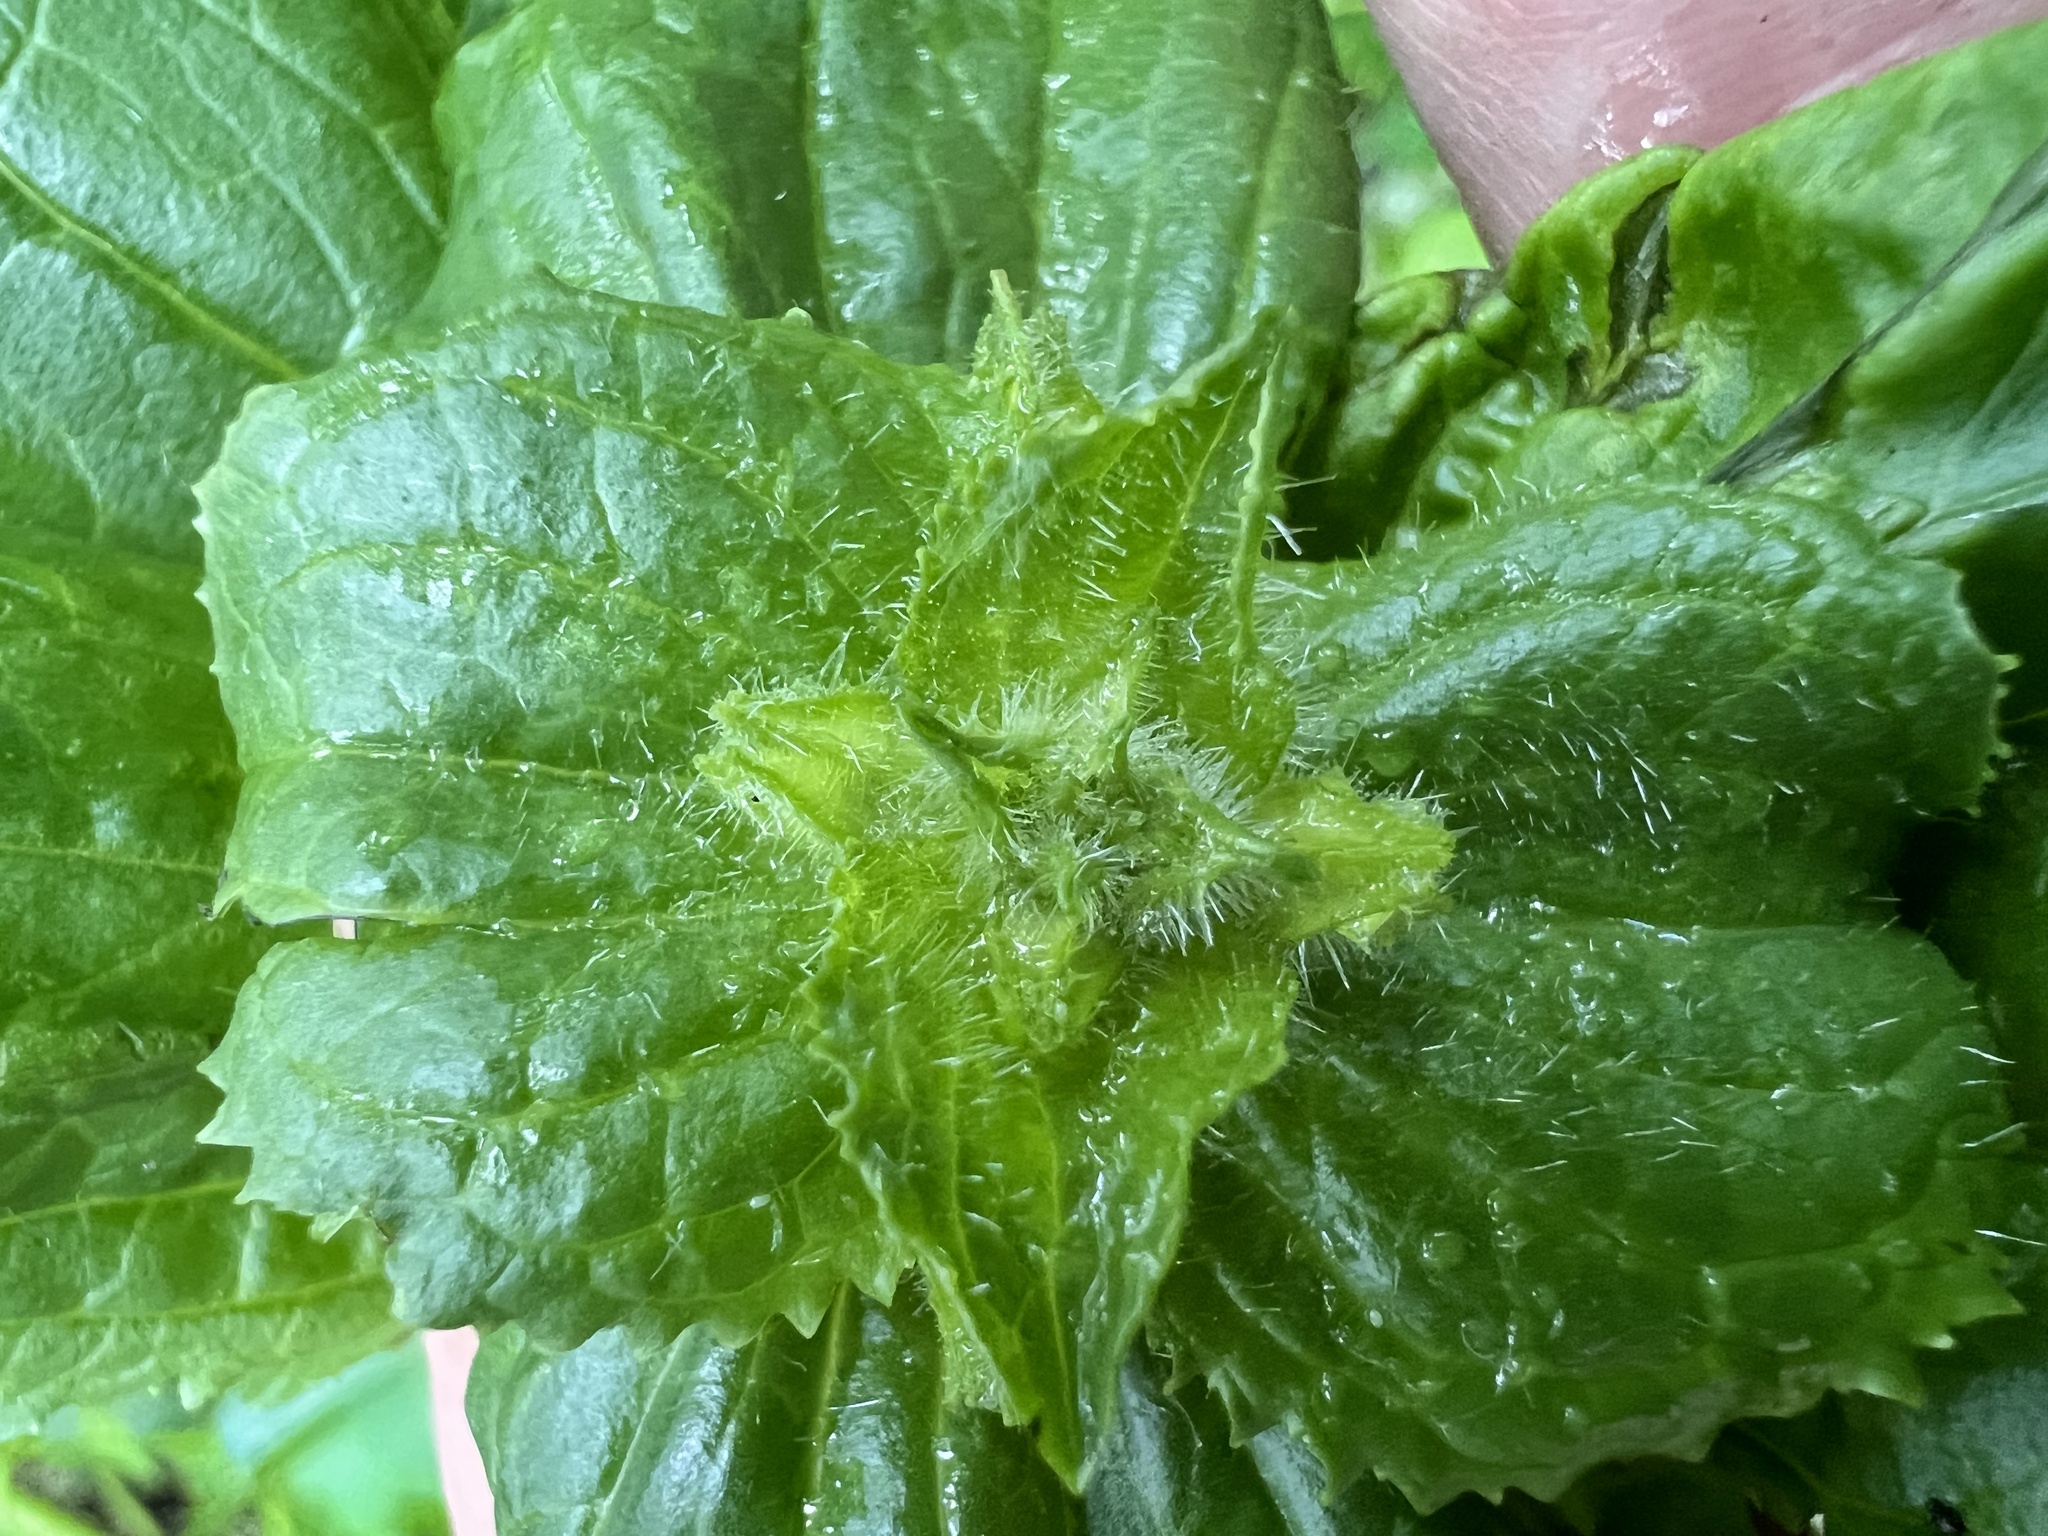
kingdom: Plantae
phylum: Tracheophyta
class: Magnoliopsida
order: Lamiales
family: Phrymaceae
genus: Erythranthe
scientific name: Erythranthe guttata
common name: Monkeyflower
